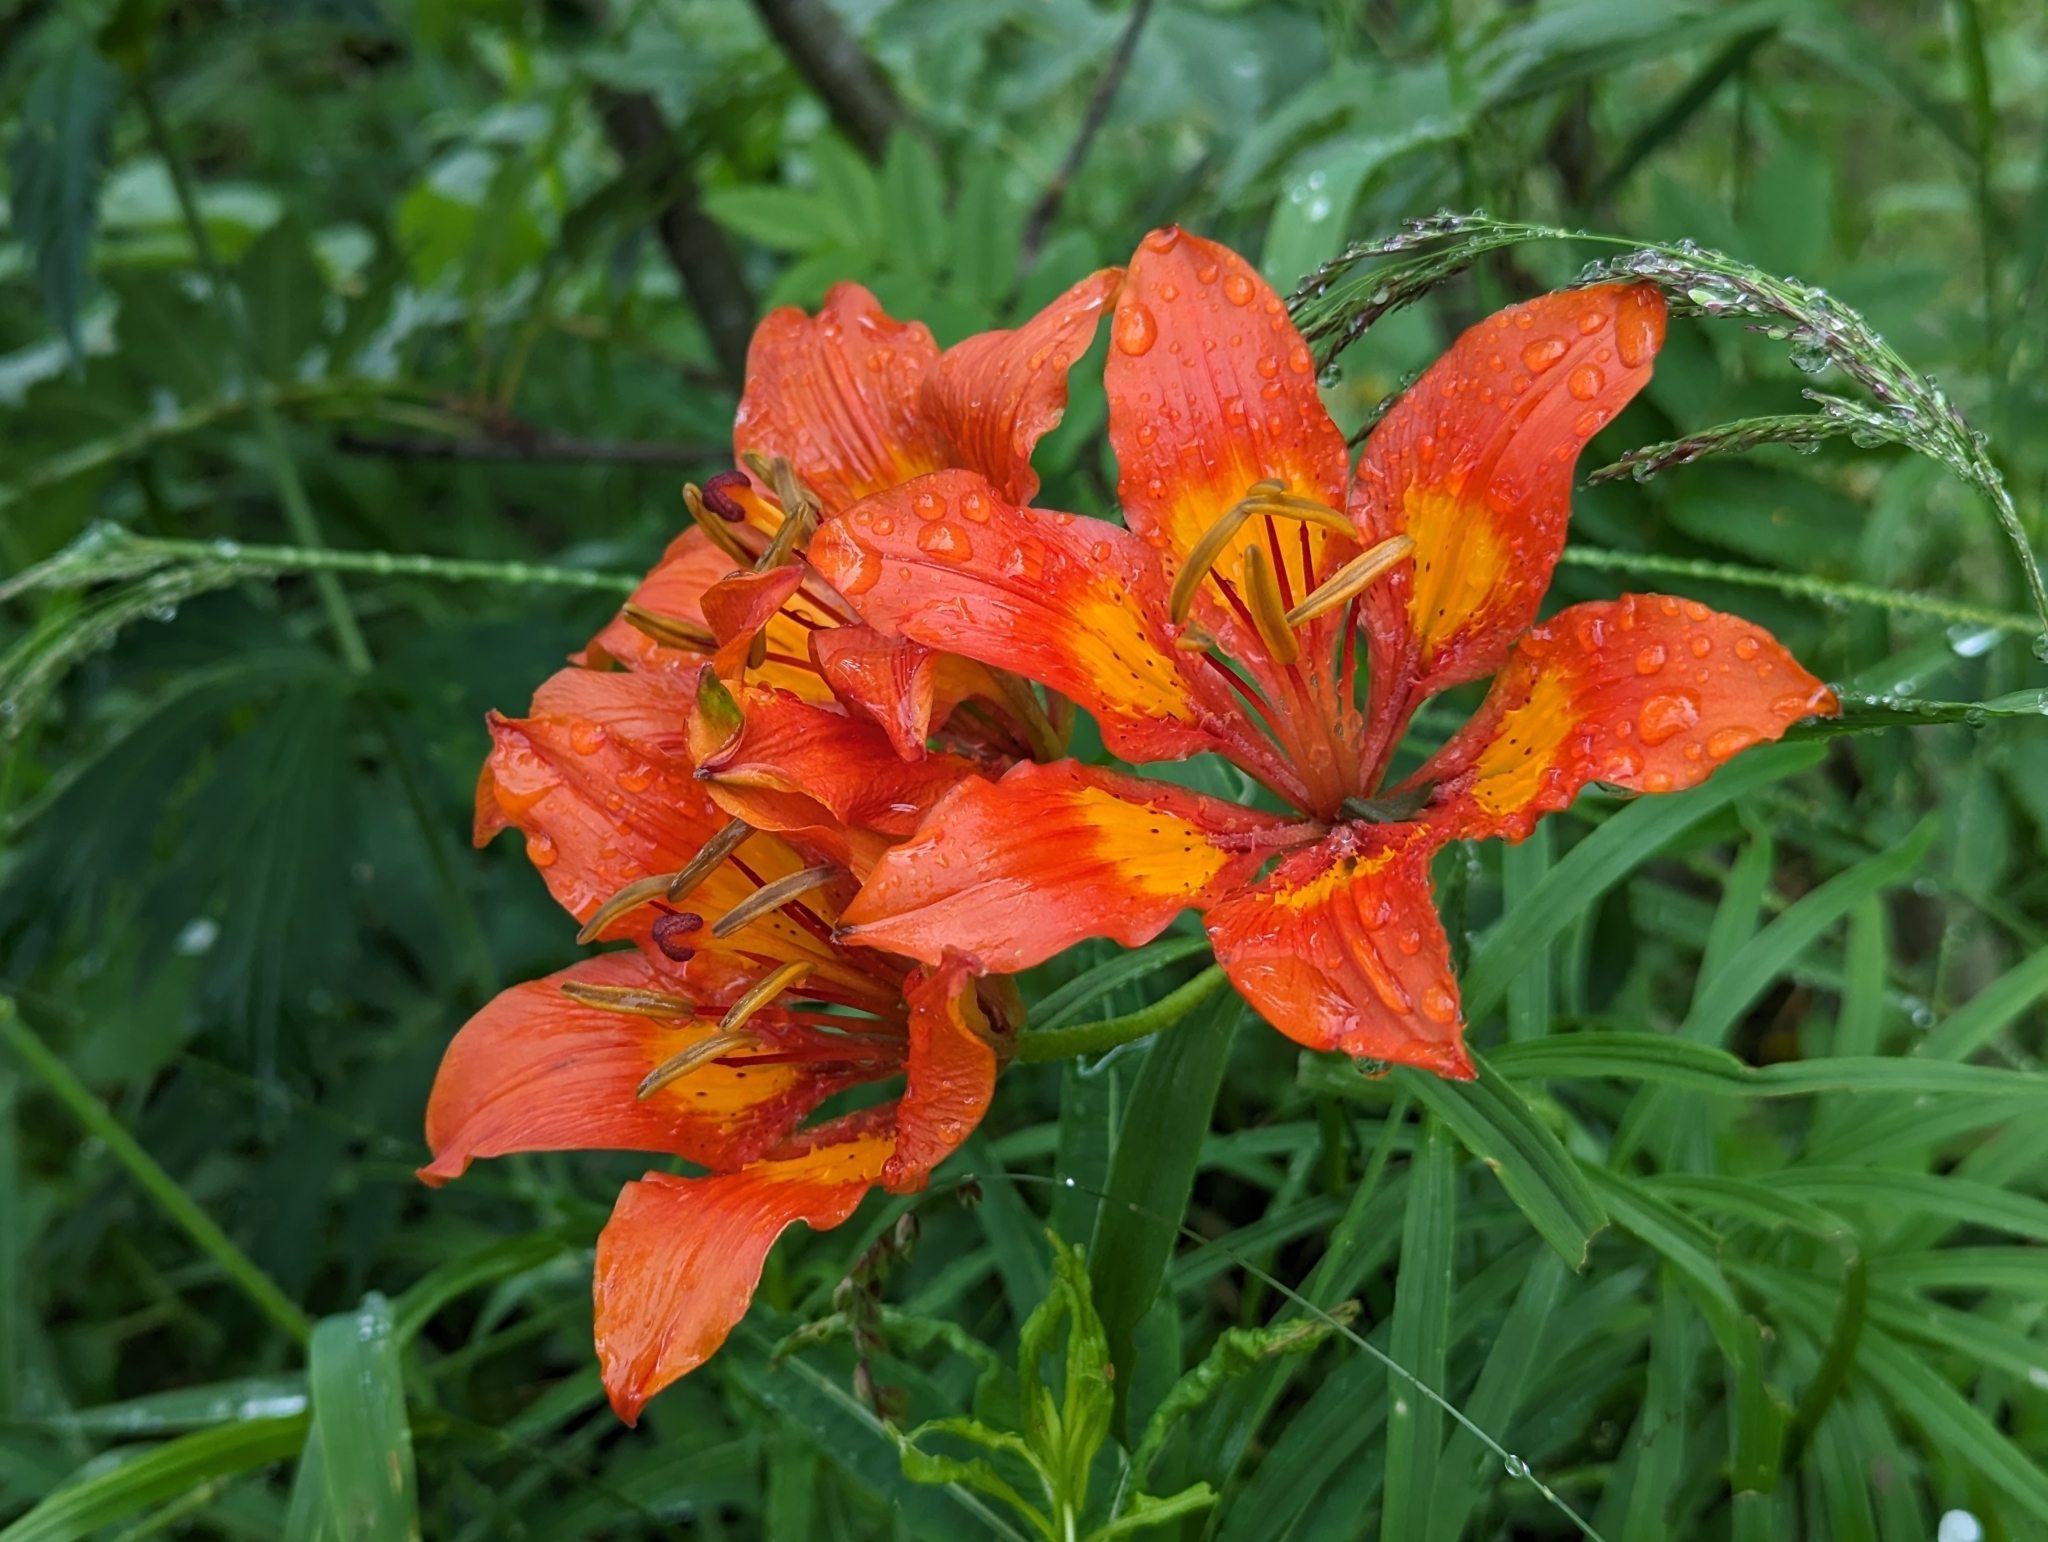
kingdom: Plantae
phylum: Tracheophyta
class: Liliopsida
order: Liliales
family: Liliaceae
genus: Lilium
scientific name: Lilium bulbiferum
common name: Orange lily
